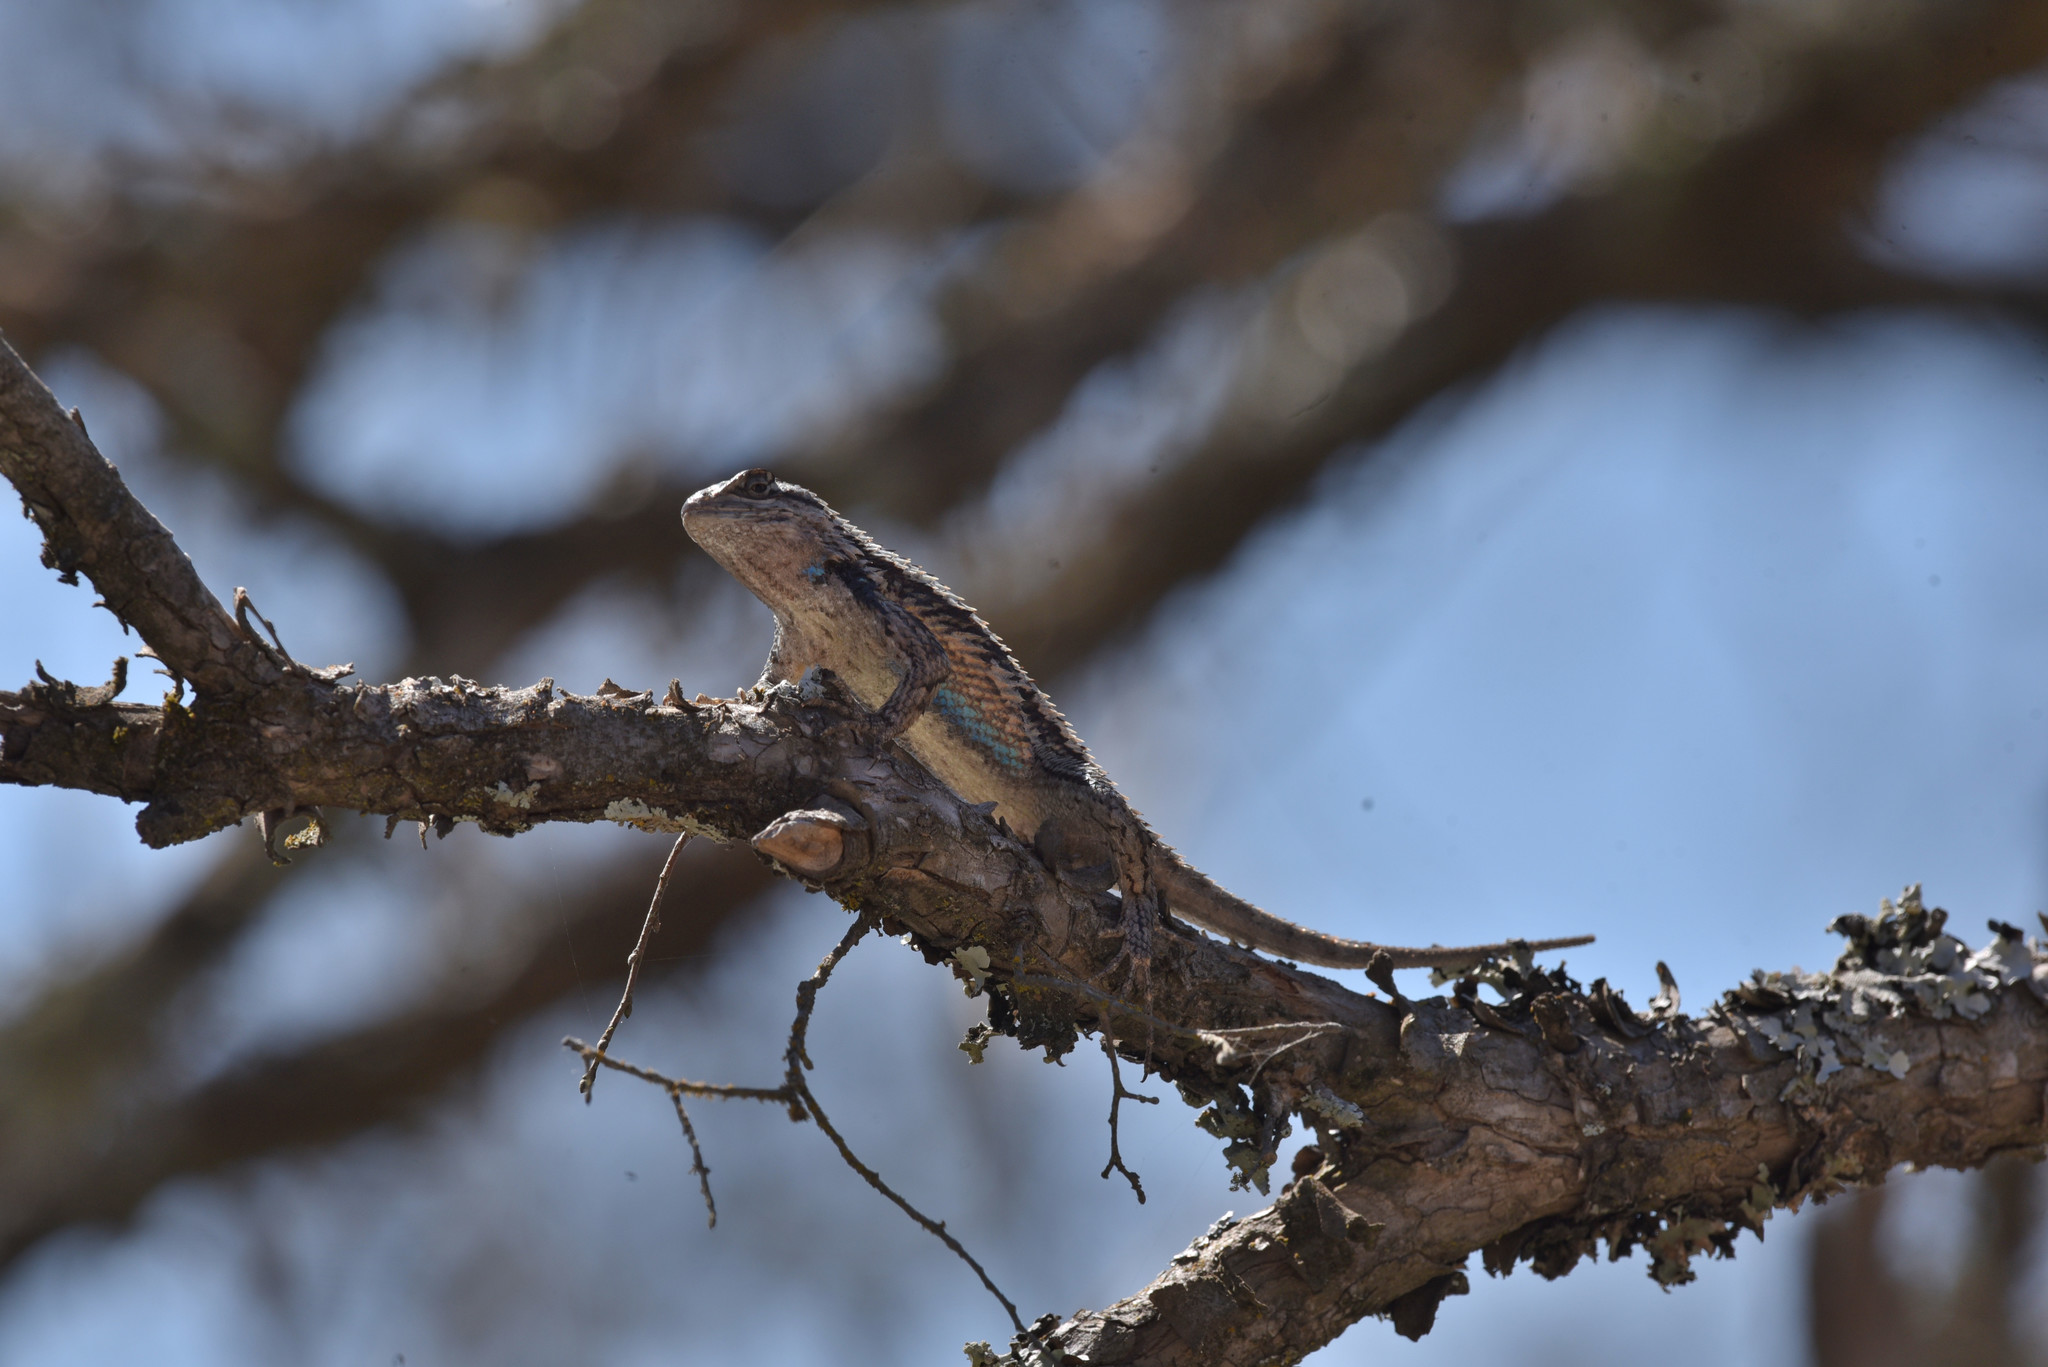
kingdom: Animalia
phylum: Chordata
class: Squamata
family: Phrynosomatidae
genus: Sceloporus
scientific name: Sceloporus olivaceus
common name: Texas spiny lizard
